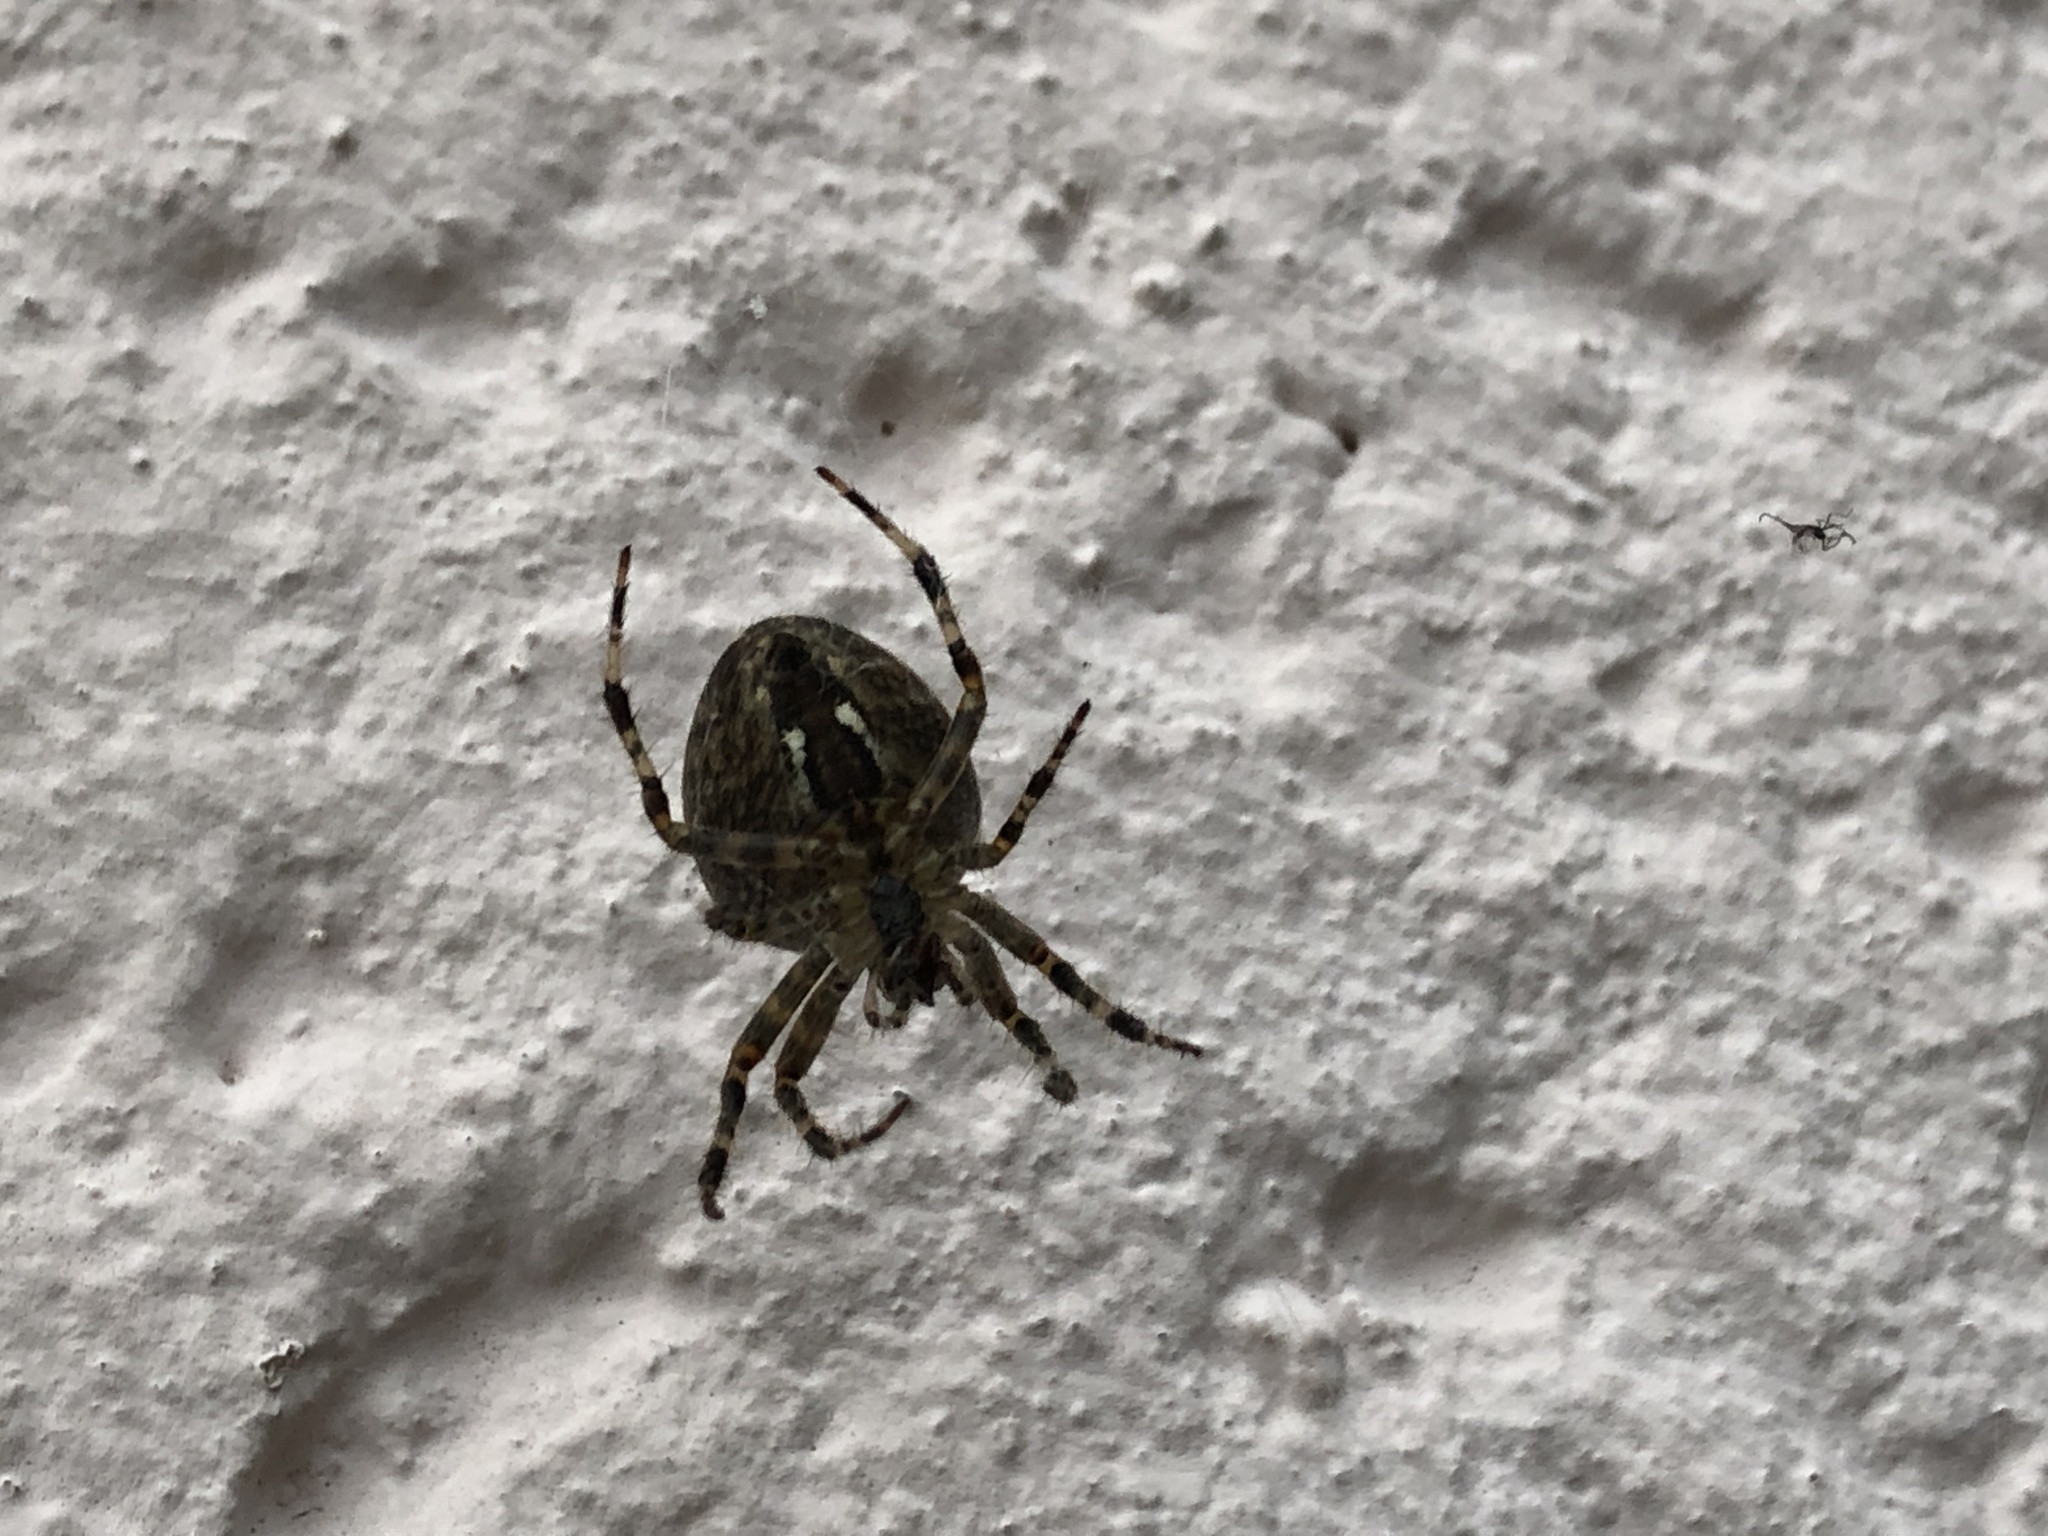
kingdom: Animalia
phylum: Arthropoda
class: Arachnida
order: Araneae
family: Araneidae
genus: Araneus
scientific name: Araneus diadematus
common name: Cross orbweaver
